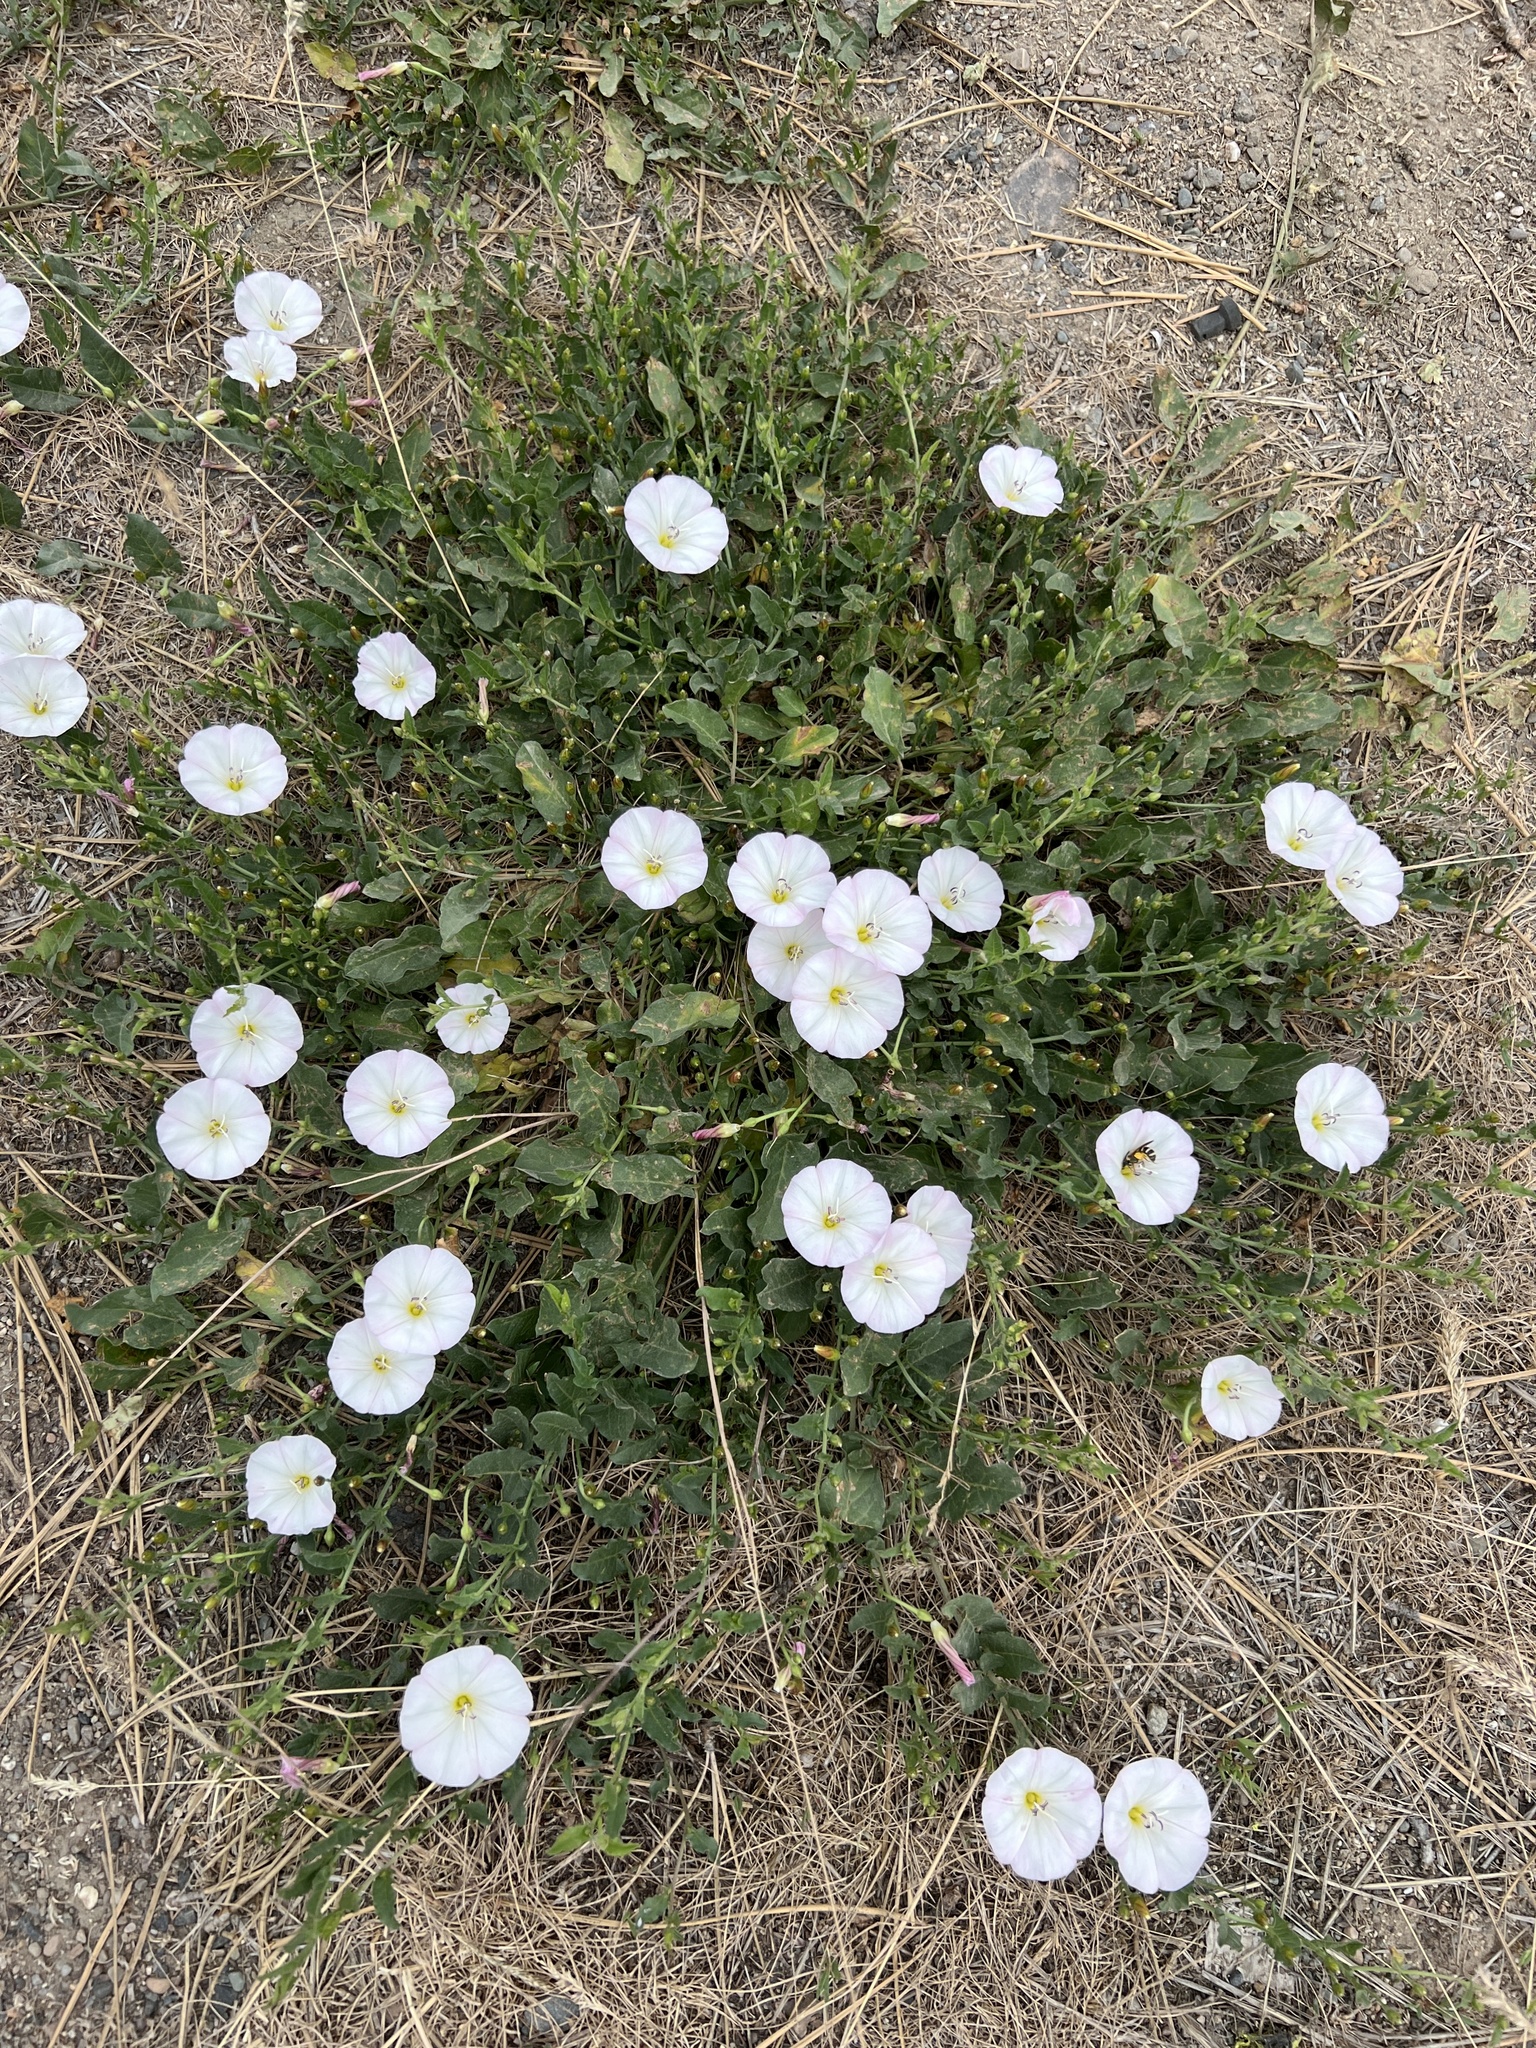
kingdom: Plantae
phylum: Tracheophyta
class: Magnoliopsida
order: Solanales
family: Convolvulaceae
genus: Convolvulus
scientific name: Convolvulus arvensis
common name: Field bindweed
